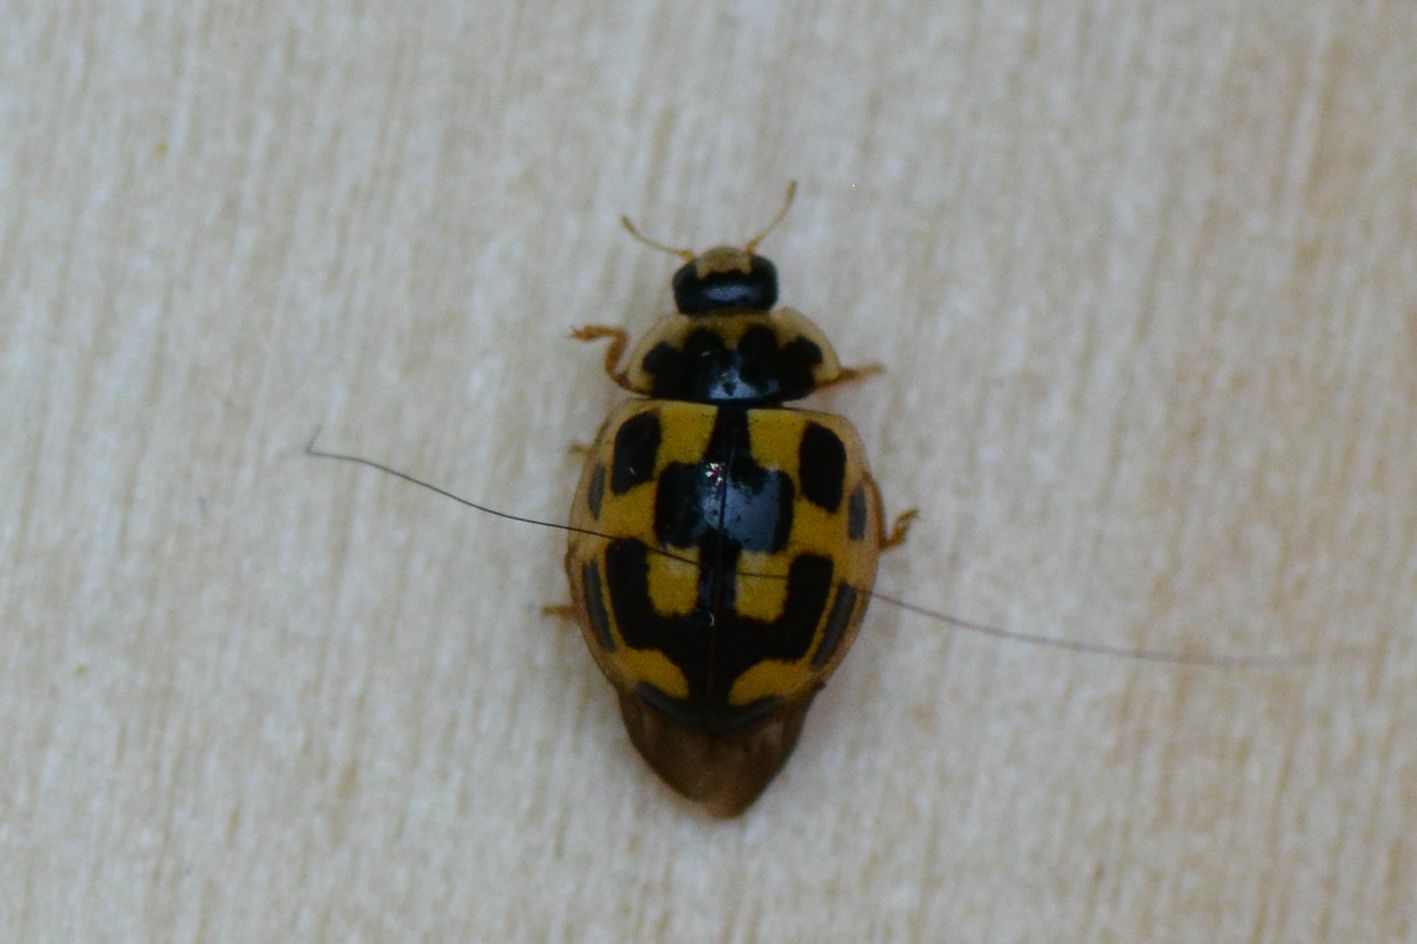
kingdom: Animalia
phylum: Arthropoda
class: Insecta
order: Coleoptera
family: Coccinellidae
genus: Propylaea
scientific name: Propylaea quatuordecimpunctata
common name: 14-spotted ladybird beetle
